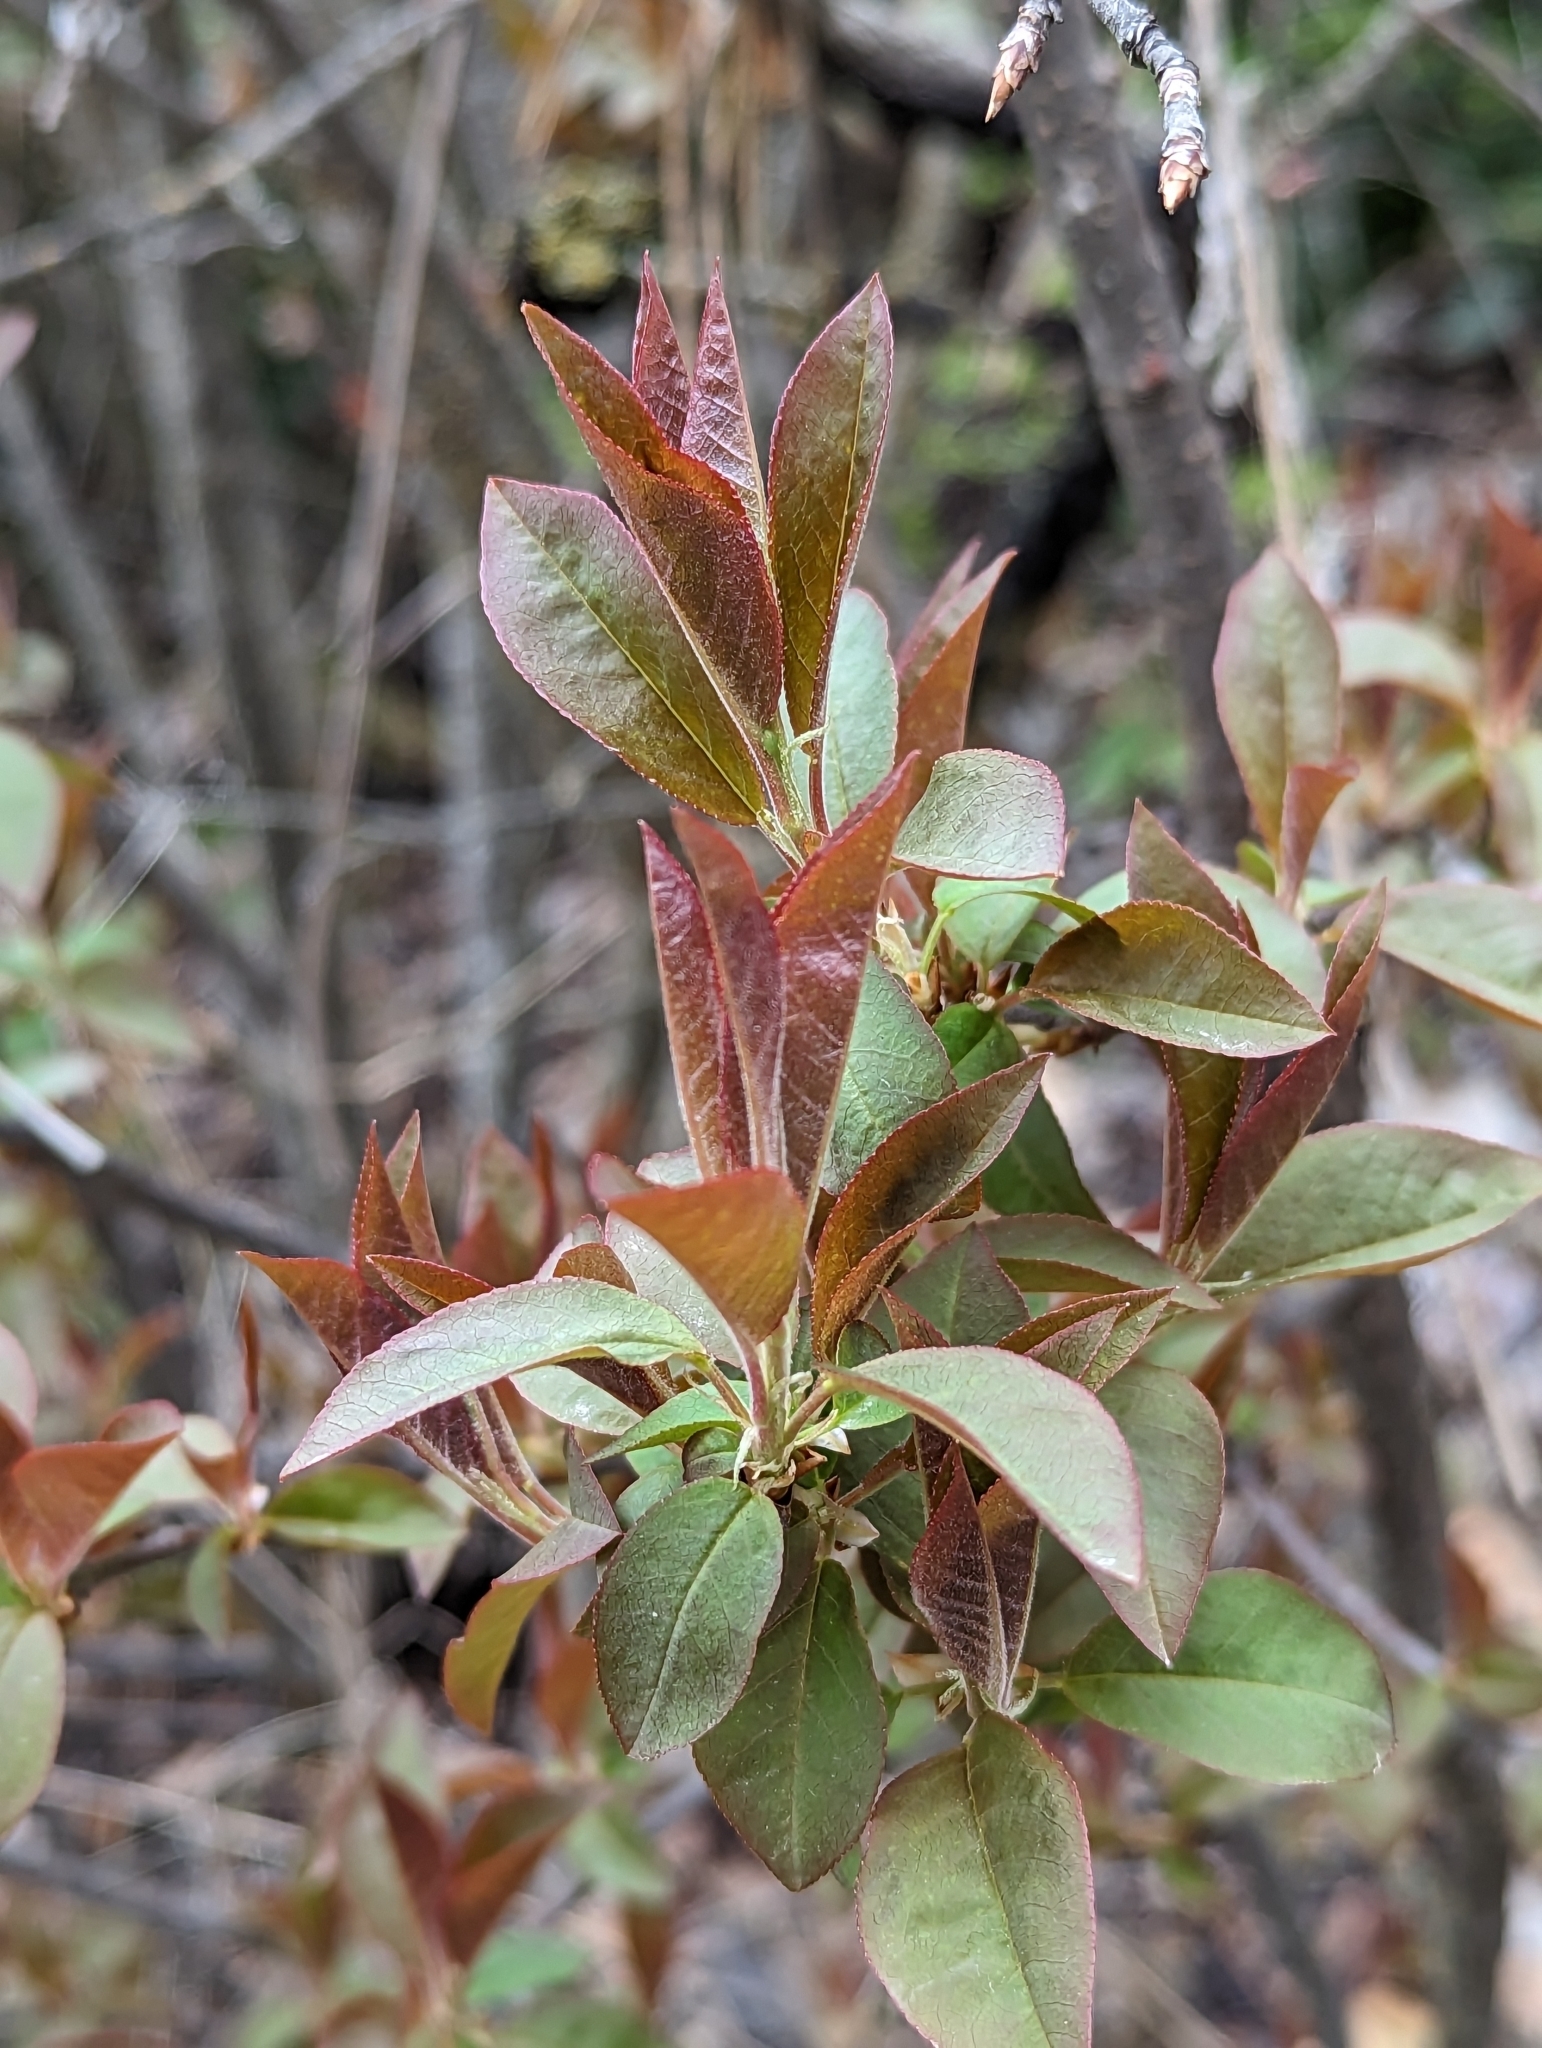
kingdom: Plantae
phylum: Tracheophyta
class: Magnoliopsida
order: Rosales
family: Rosaceae
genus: Prunus
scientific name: Prunus virginiana
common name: Chokecherry
